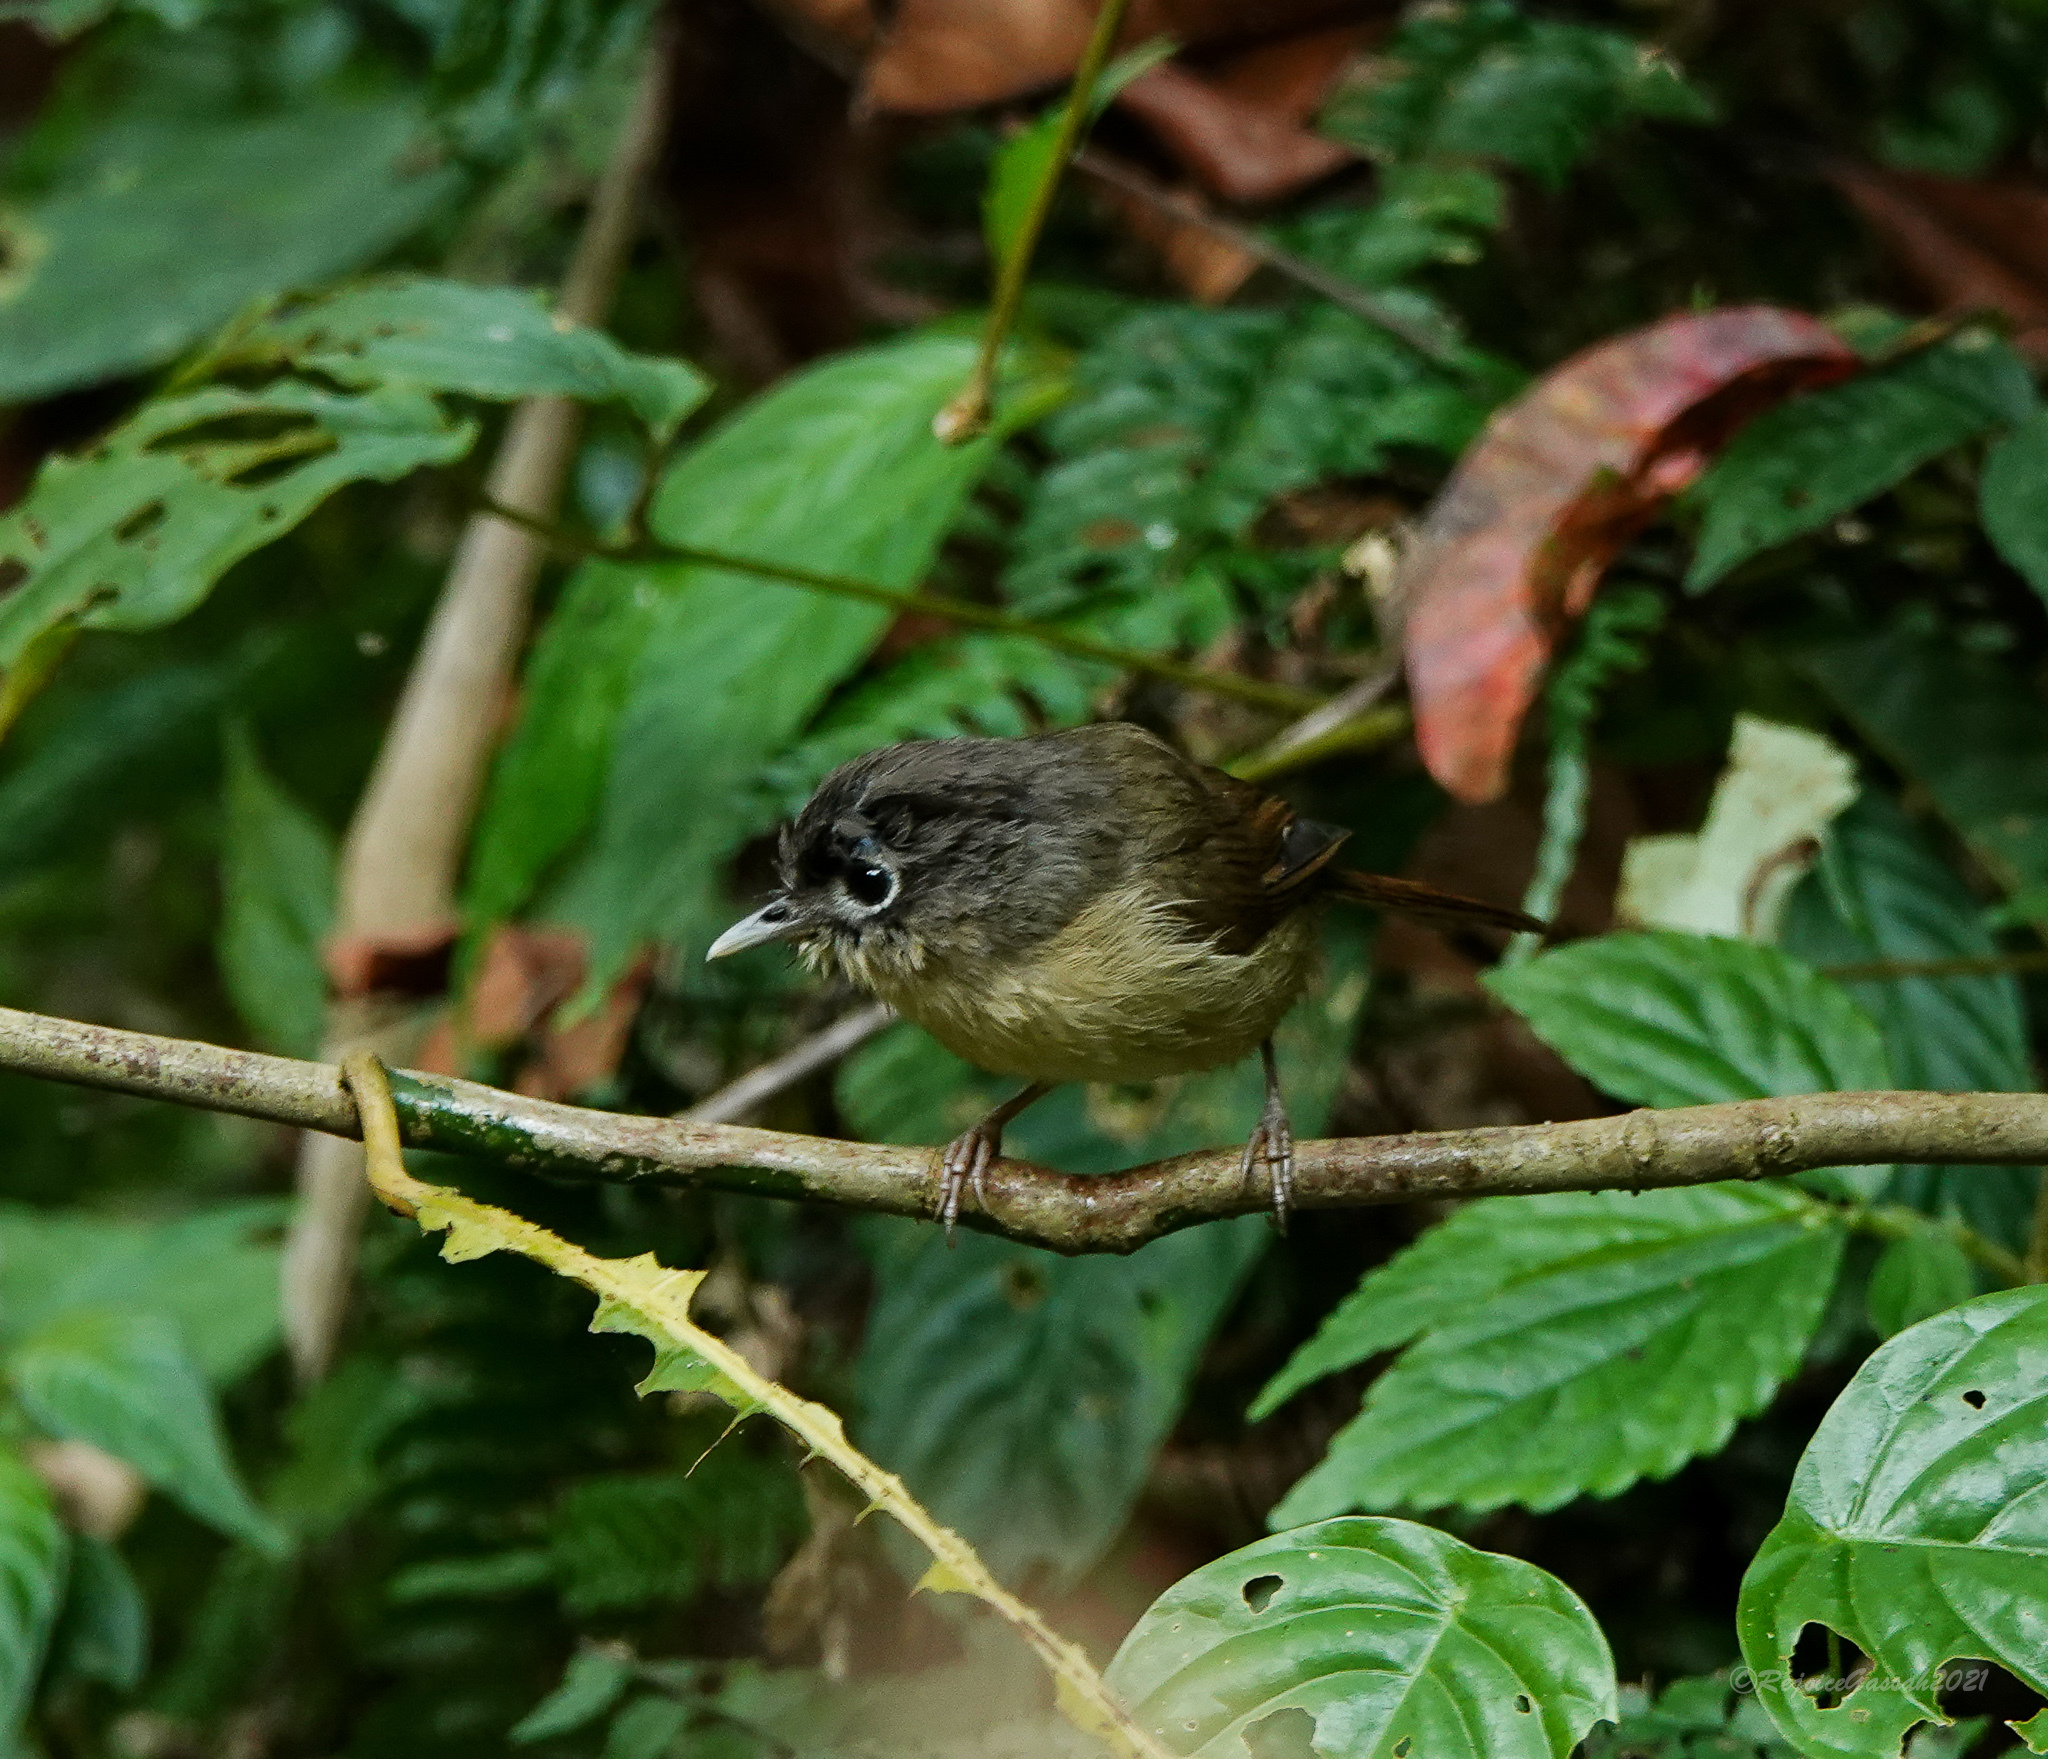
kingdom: Animalia
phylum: Chordata
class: Aves
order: Passeriformes
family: Pellorneidae
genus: Alcippe
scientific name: Alcippe nipalensis
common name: Nepal fulvetta
